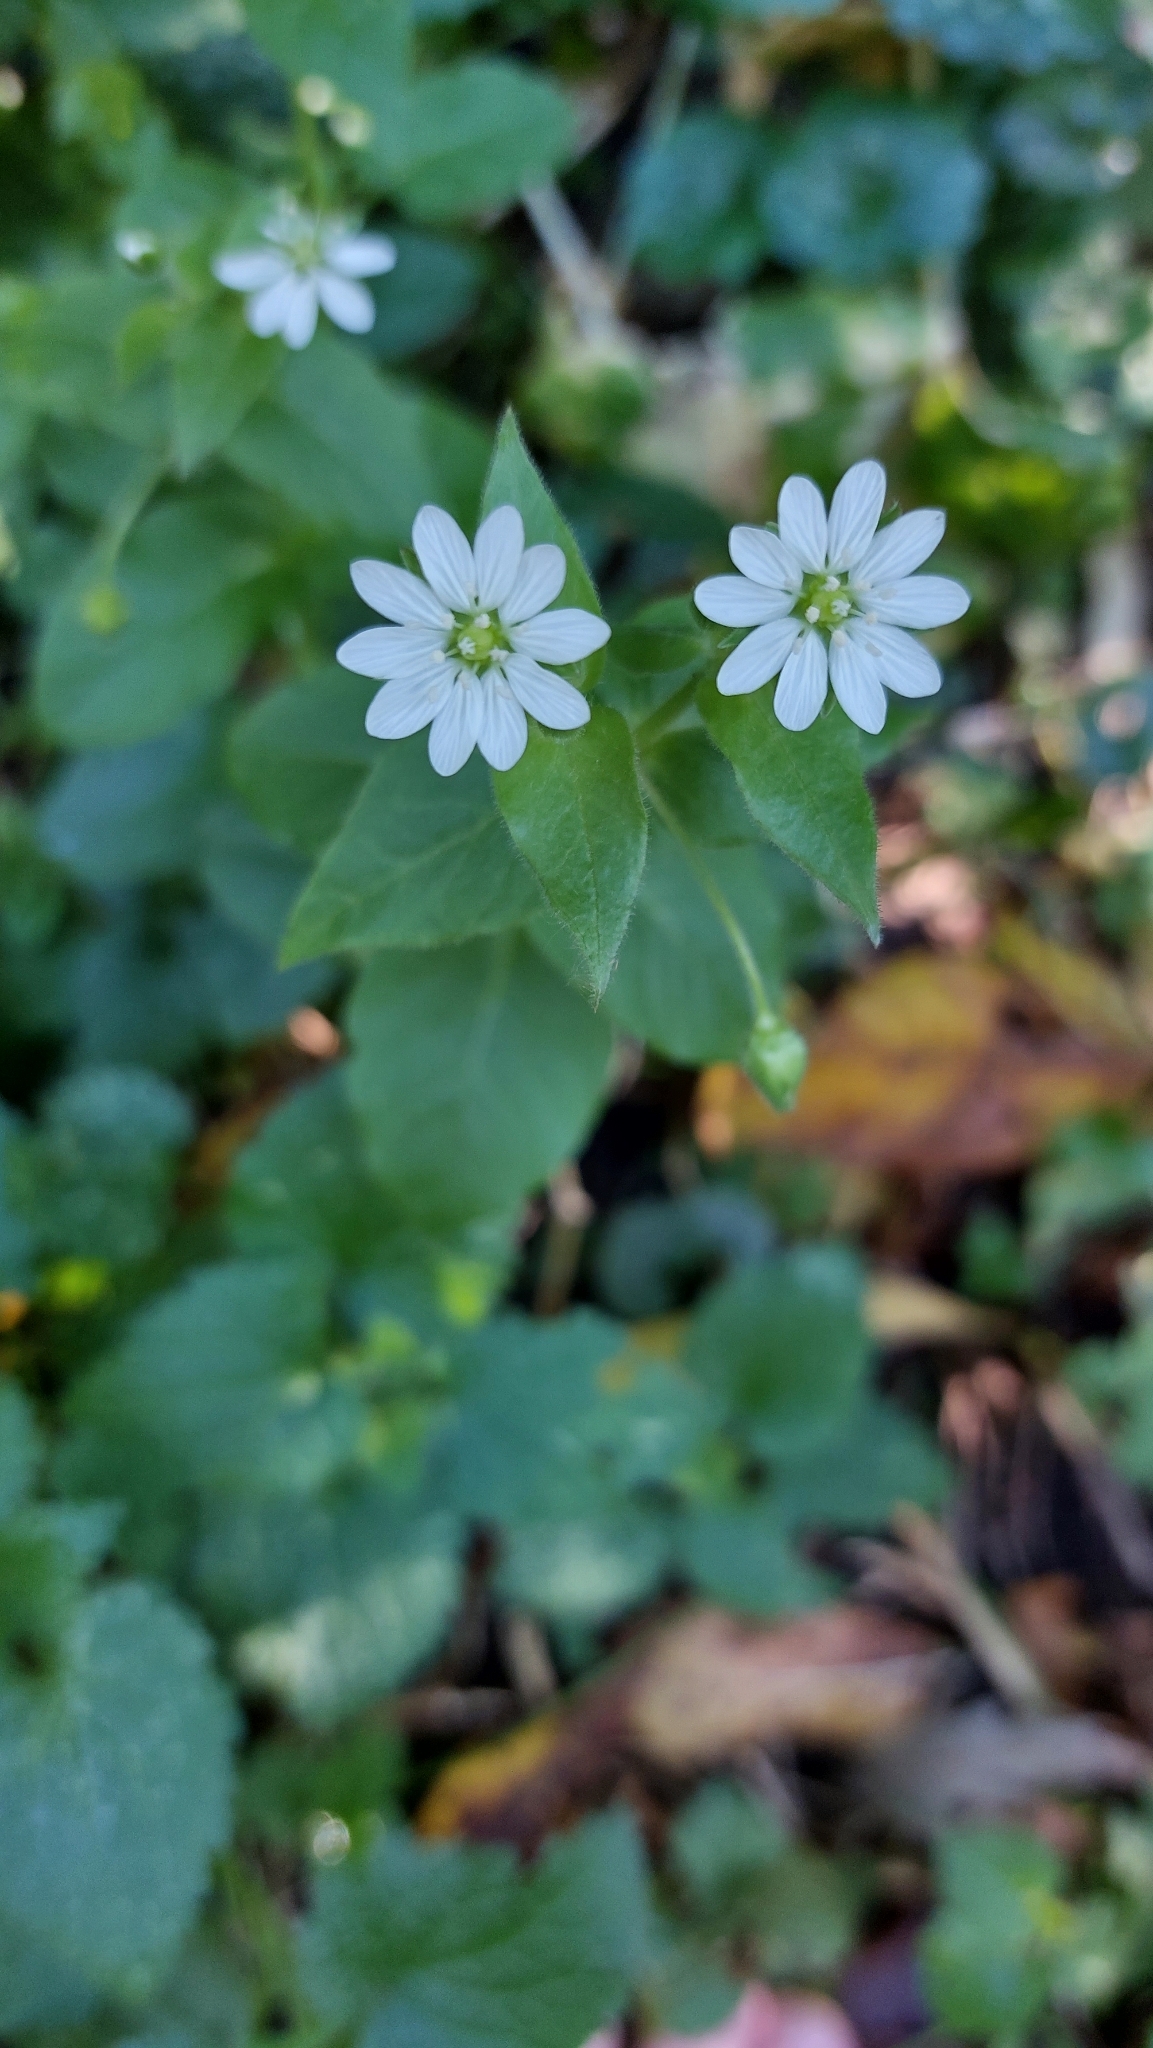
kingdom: Plantae
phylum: Tracheophyta
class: Magnoliopsida
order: Caryophyllales
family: Caryophyllaceae
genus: Stellaria
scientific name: Stellaria aquatica
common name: Water chickweed
